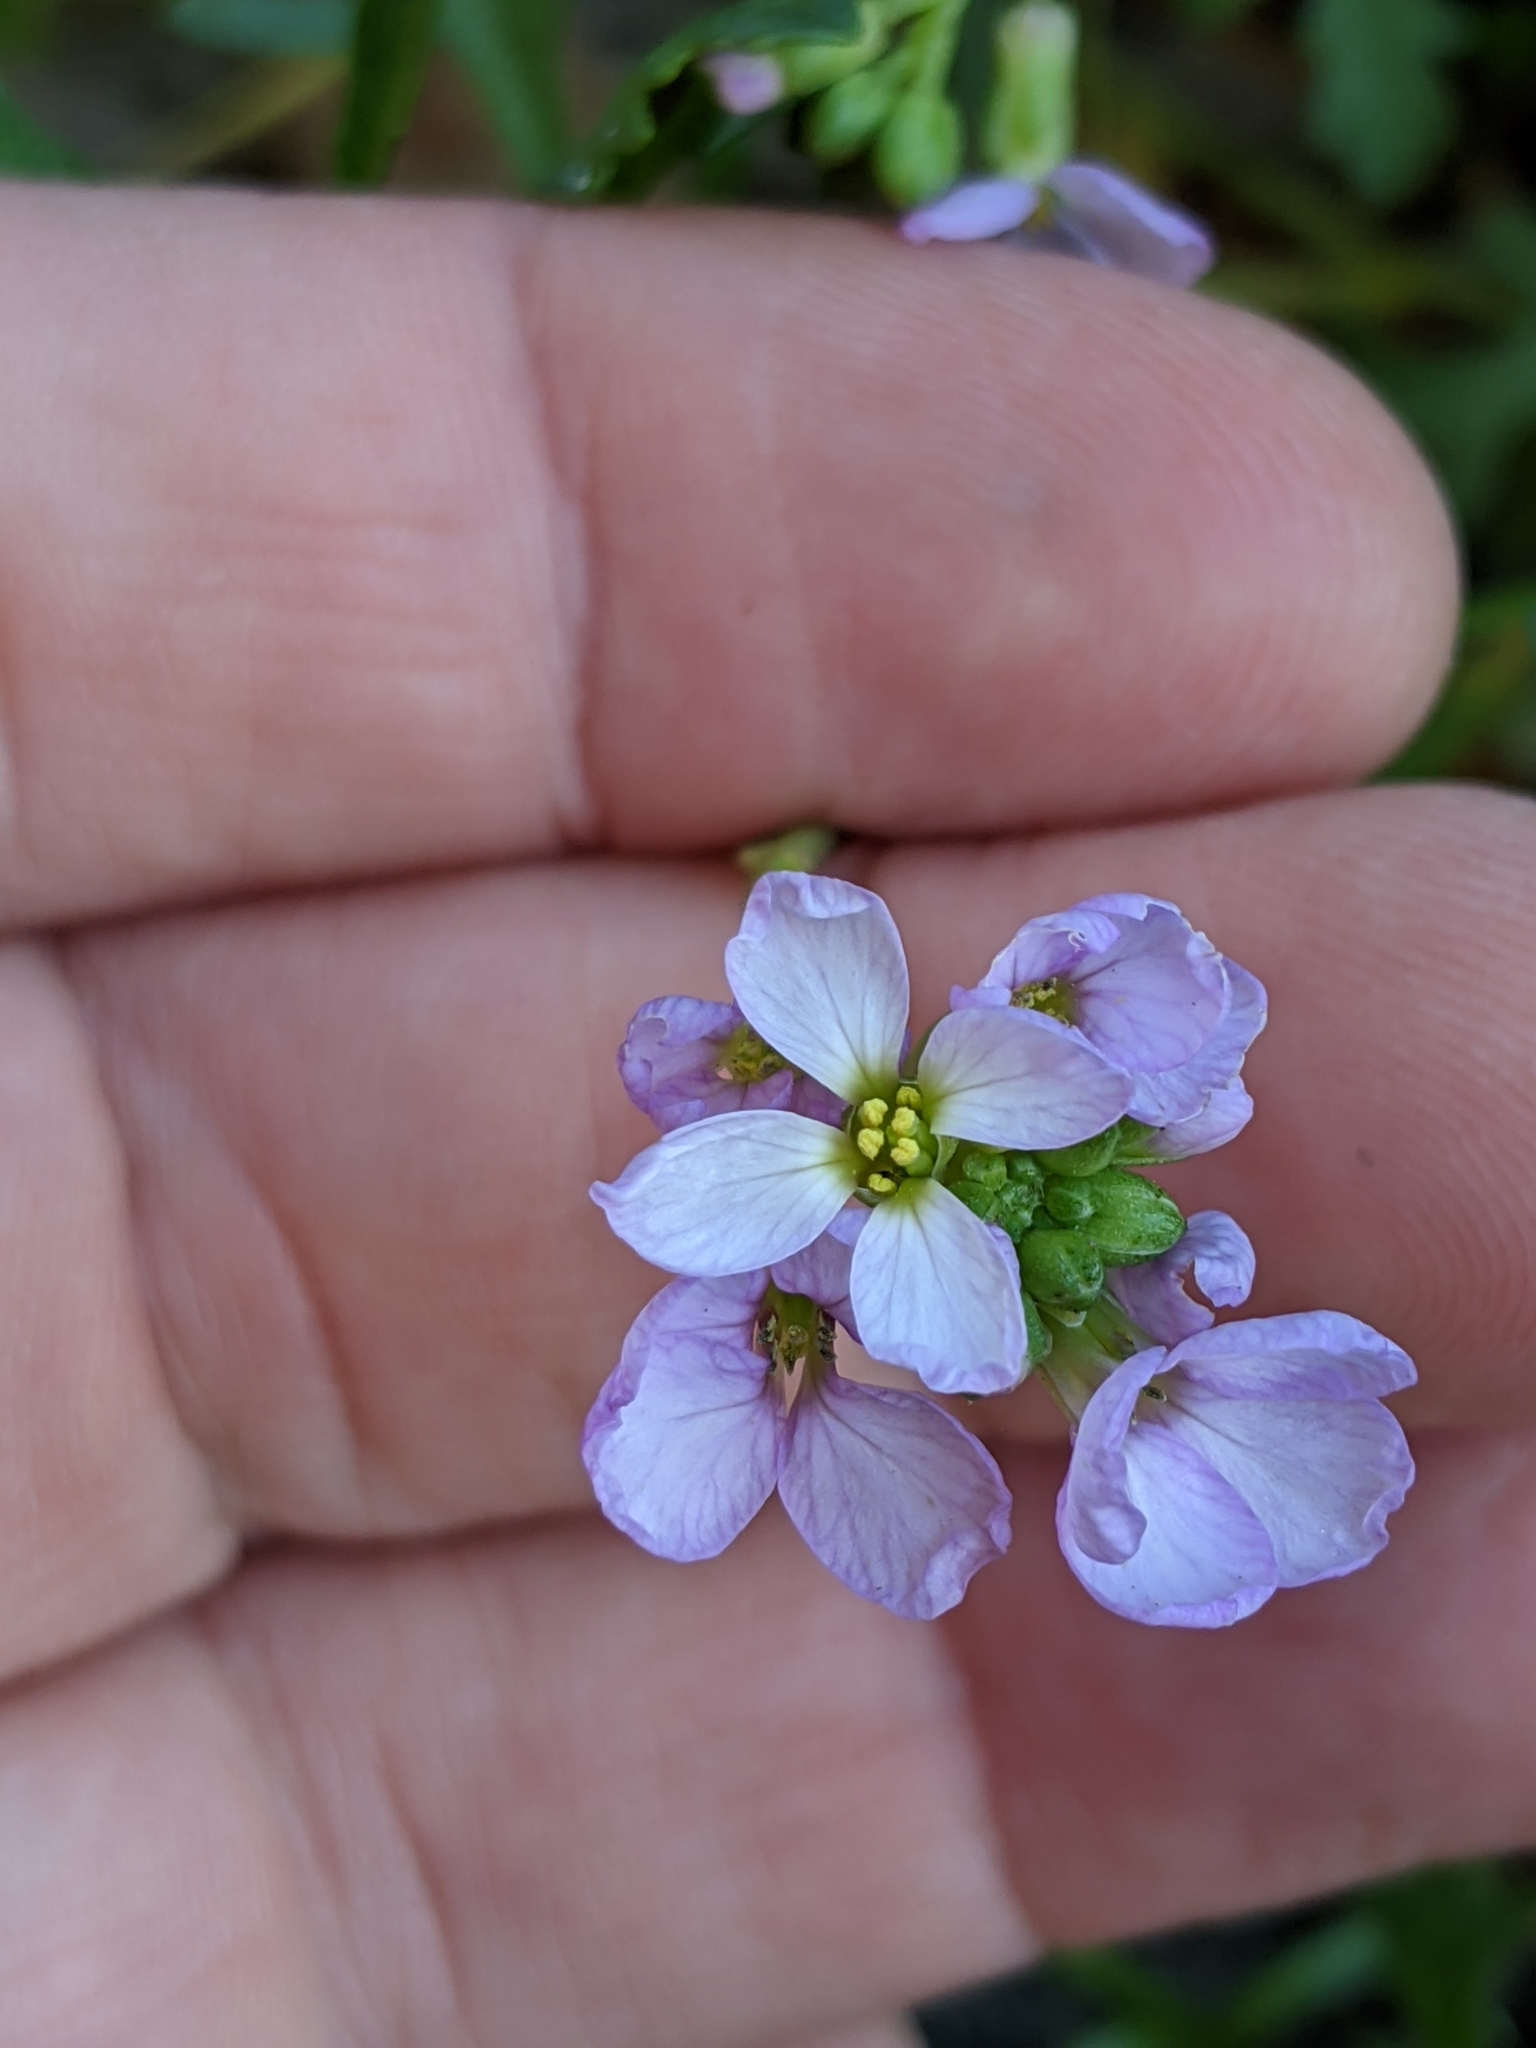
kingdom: Plantae
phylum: Tracheophyta
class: Magnoliopsida
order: Brassicales
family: Brassicaceae
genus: Cakile
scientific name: Cakile maritima
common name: Sea rocket
